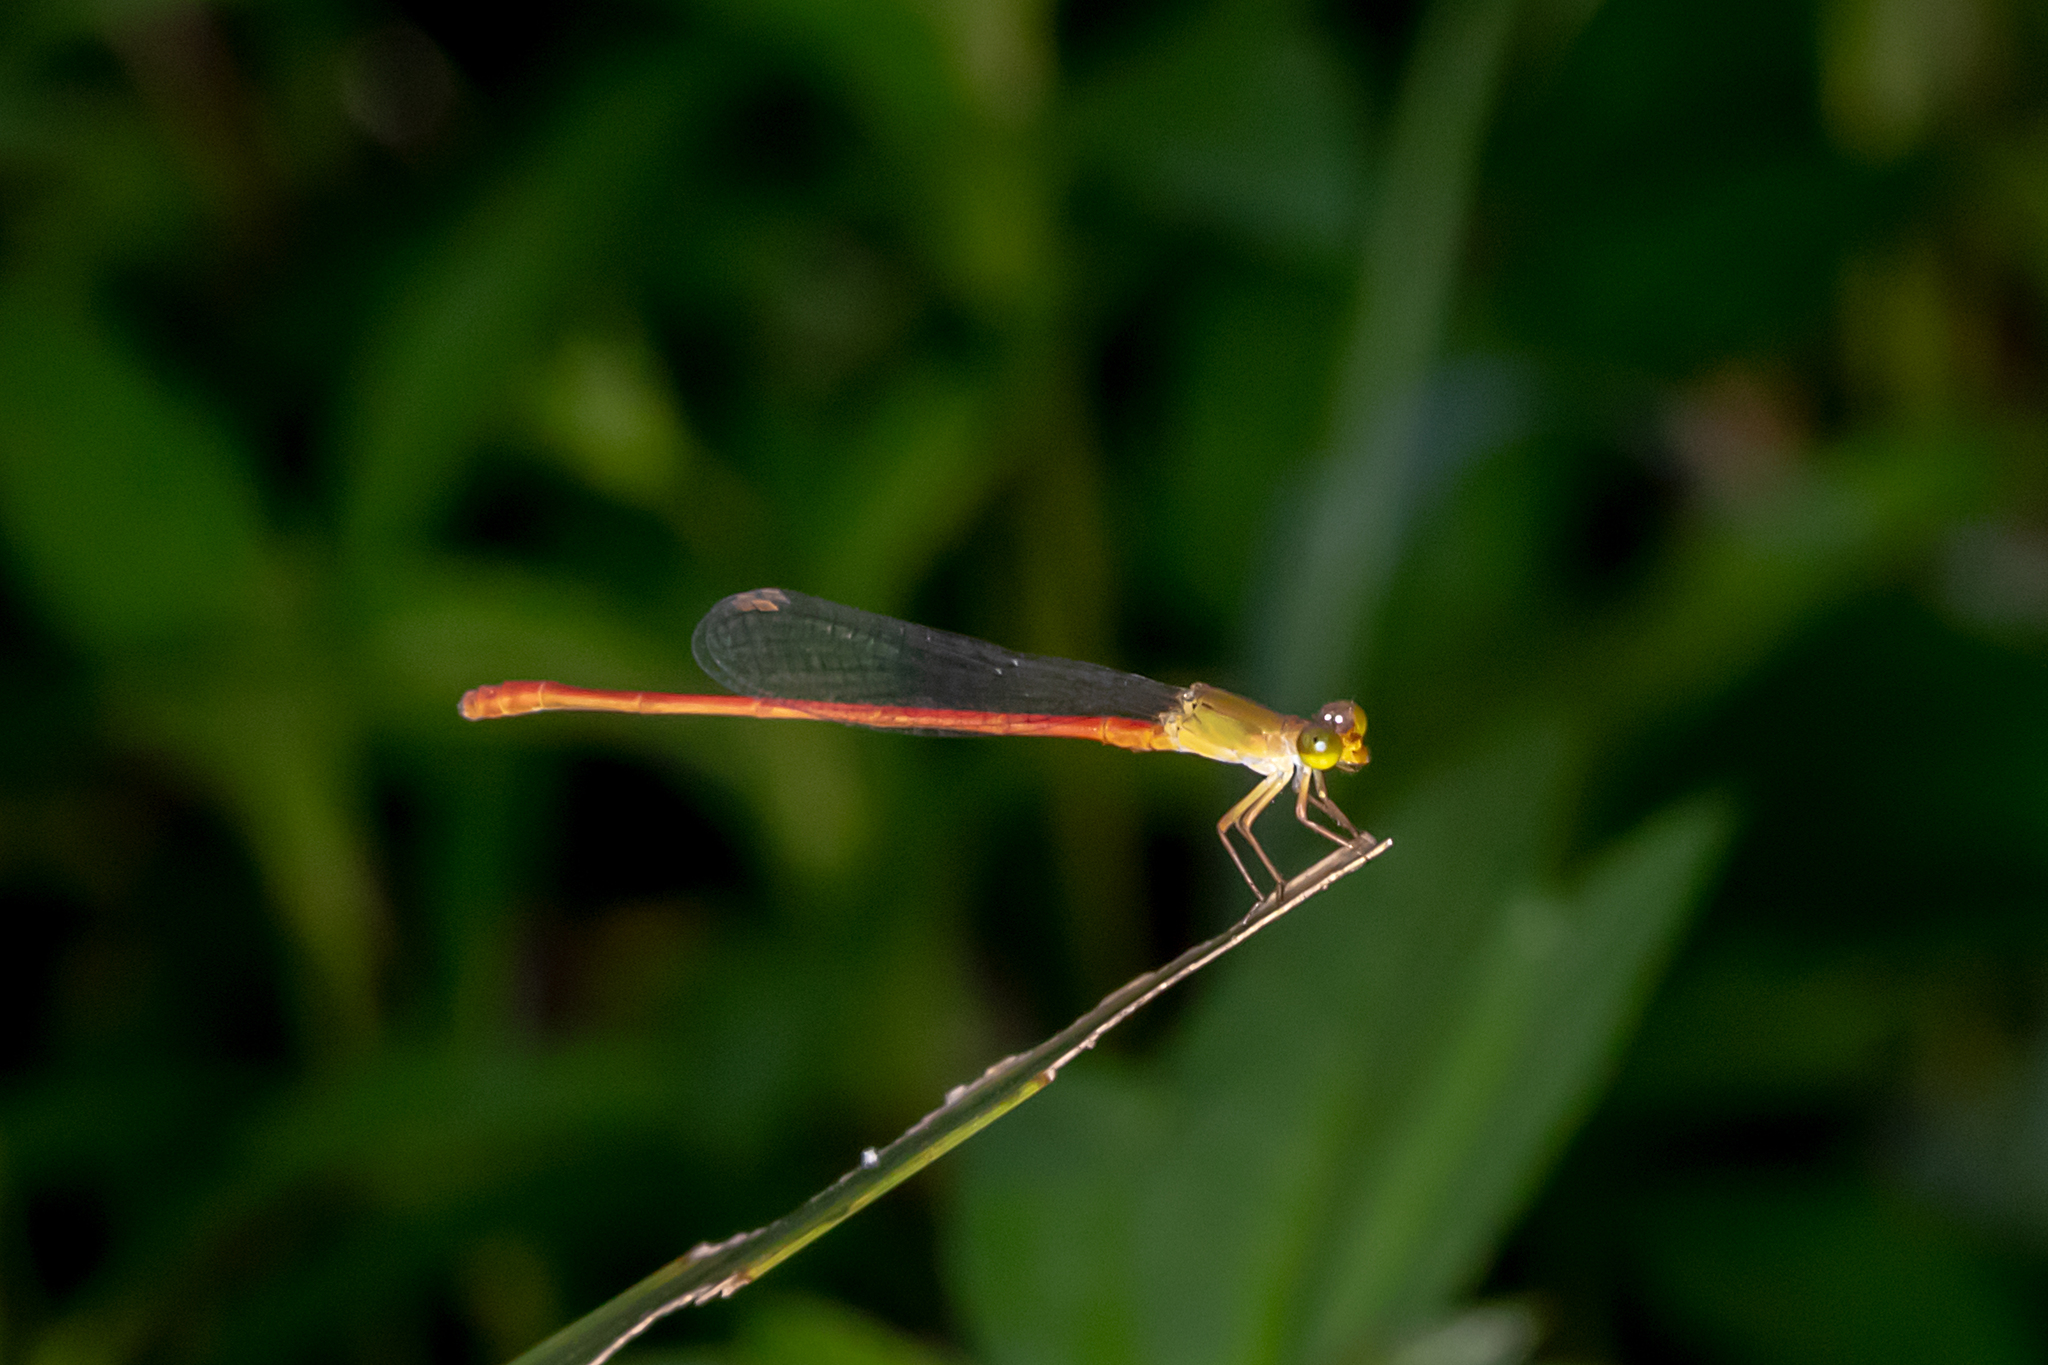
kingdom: Animalia
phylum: Arthropoda
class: Insecta
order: Odonata
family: Coenagrionidae
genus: Ceriagrion
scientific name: Ceriagrion aeruginosum
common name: Redtail
